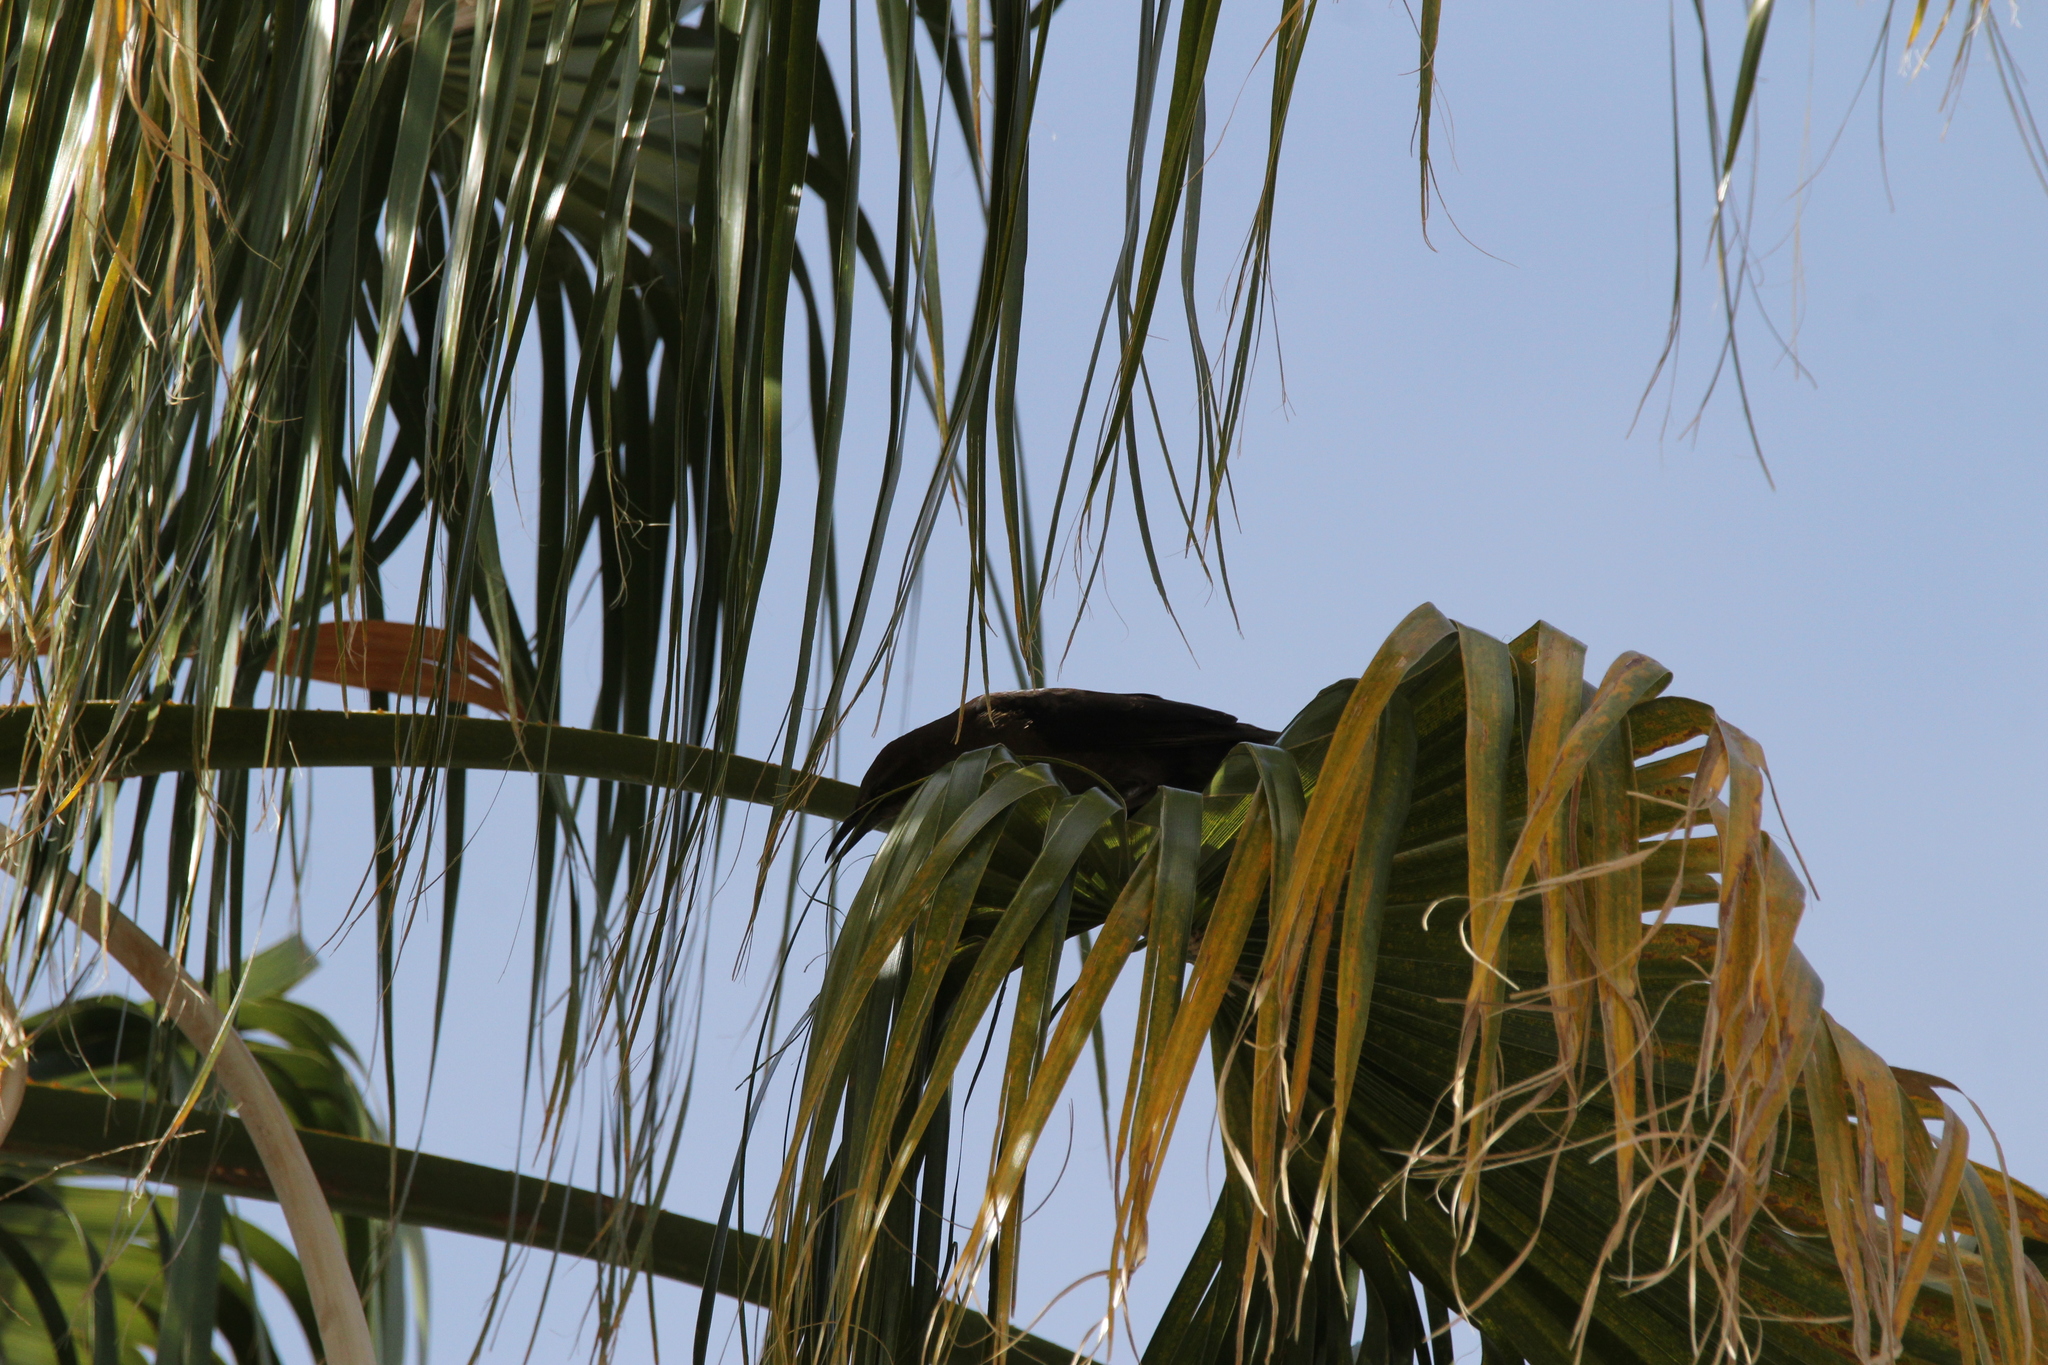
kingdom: Animalia
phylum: Chordata
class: Aves
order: Passeriformes
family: Icteridae
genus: Quiscalus
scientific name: Quiscalus mexicanus
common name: Great-tailed grackle
